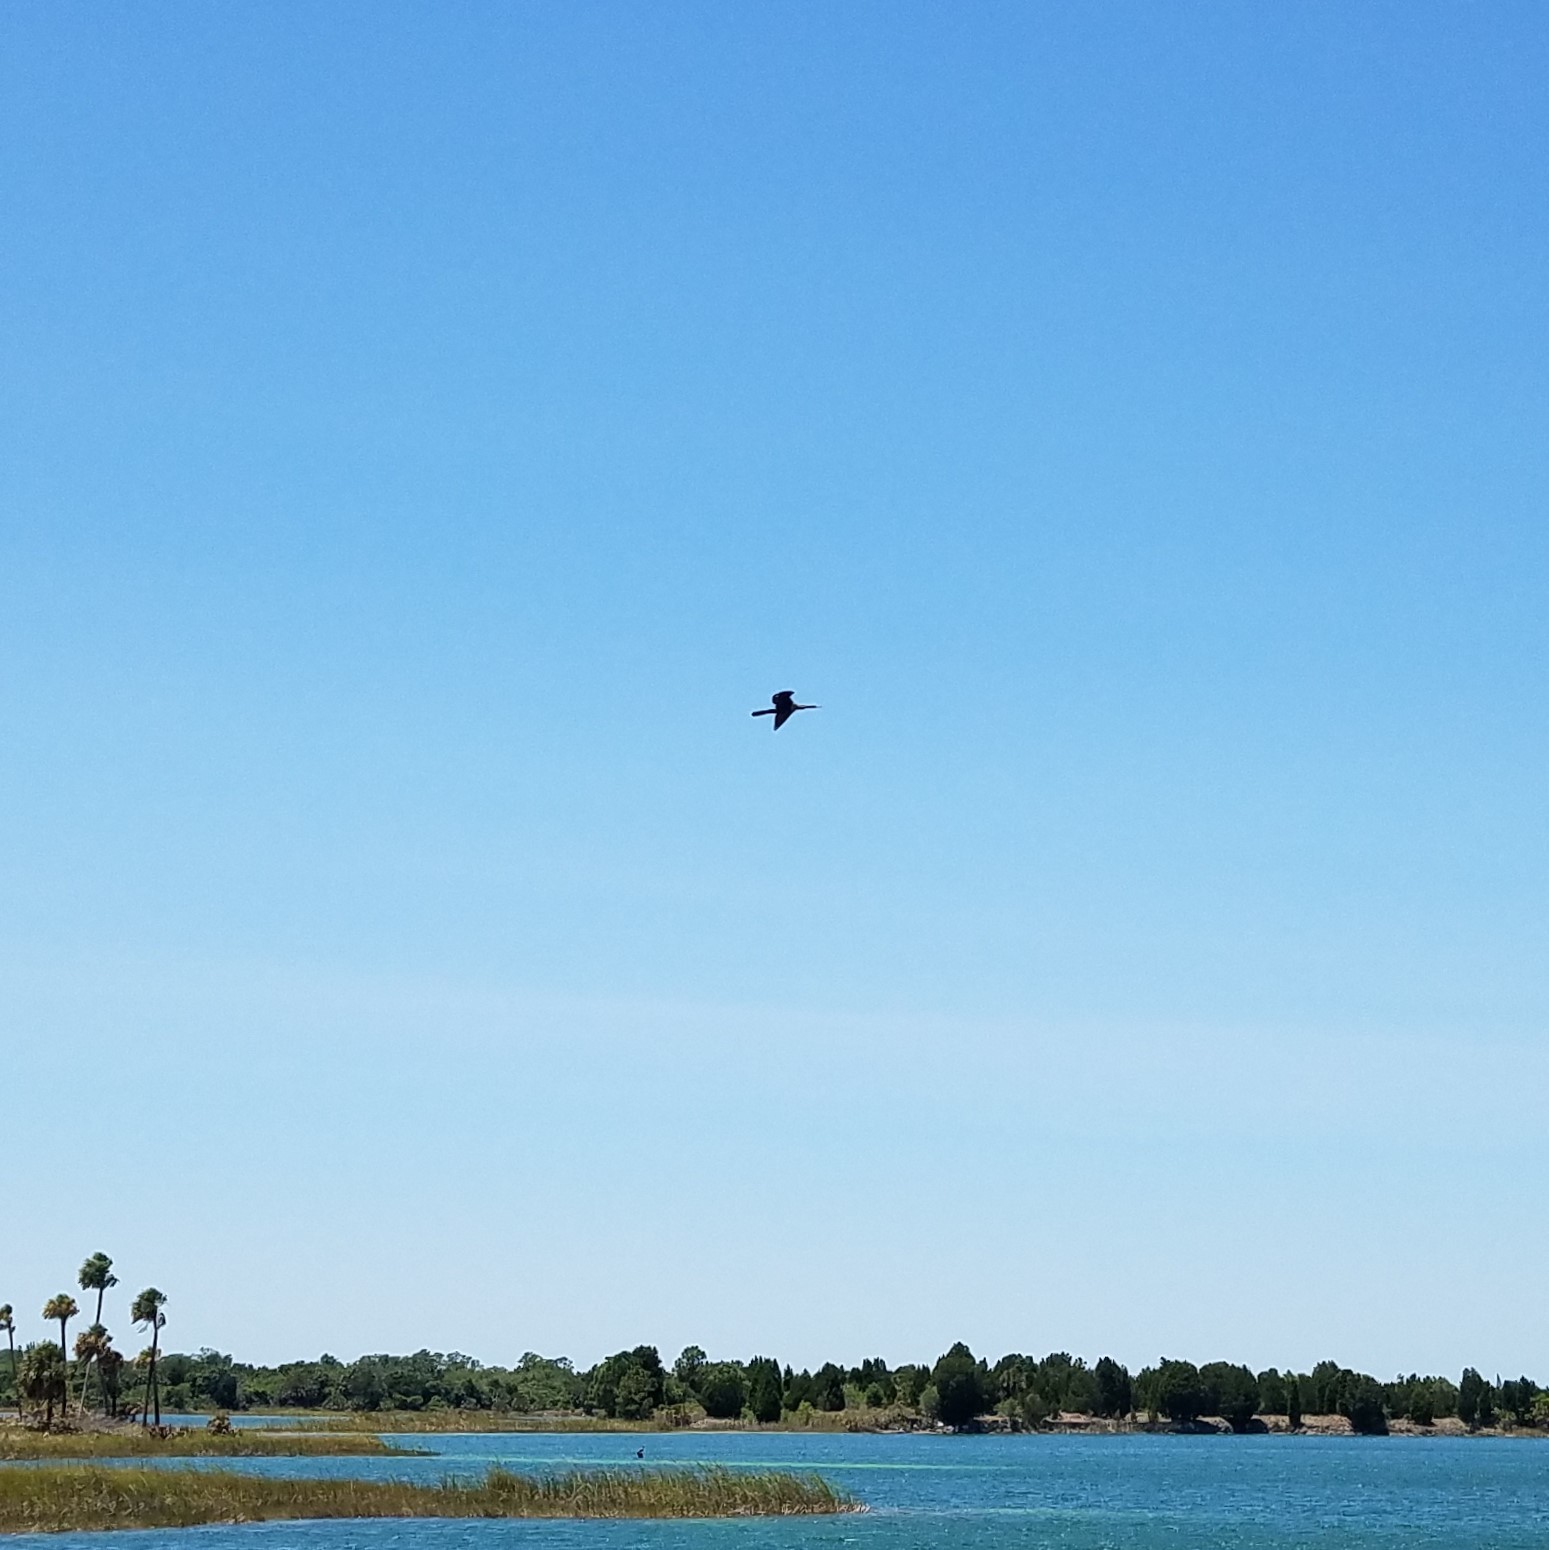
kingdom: Animalia
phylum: Chordata
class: Aves
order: Suliformes
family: Anhingidae
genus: Anhinga
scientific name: Anhinga anhinga
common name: Anhinga
